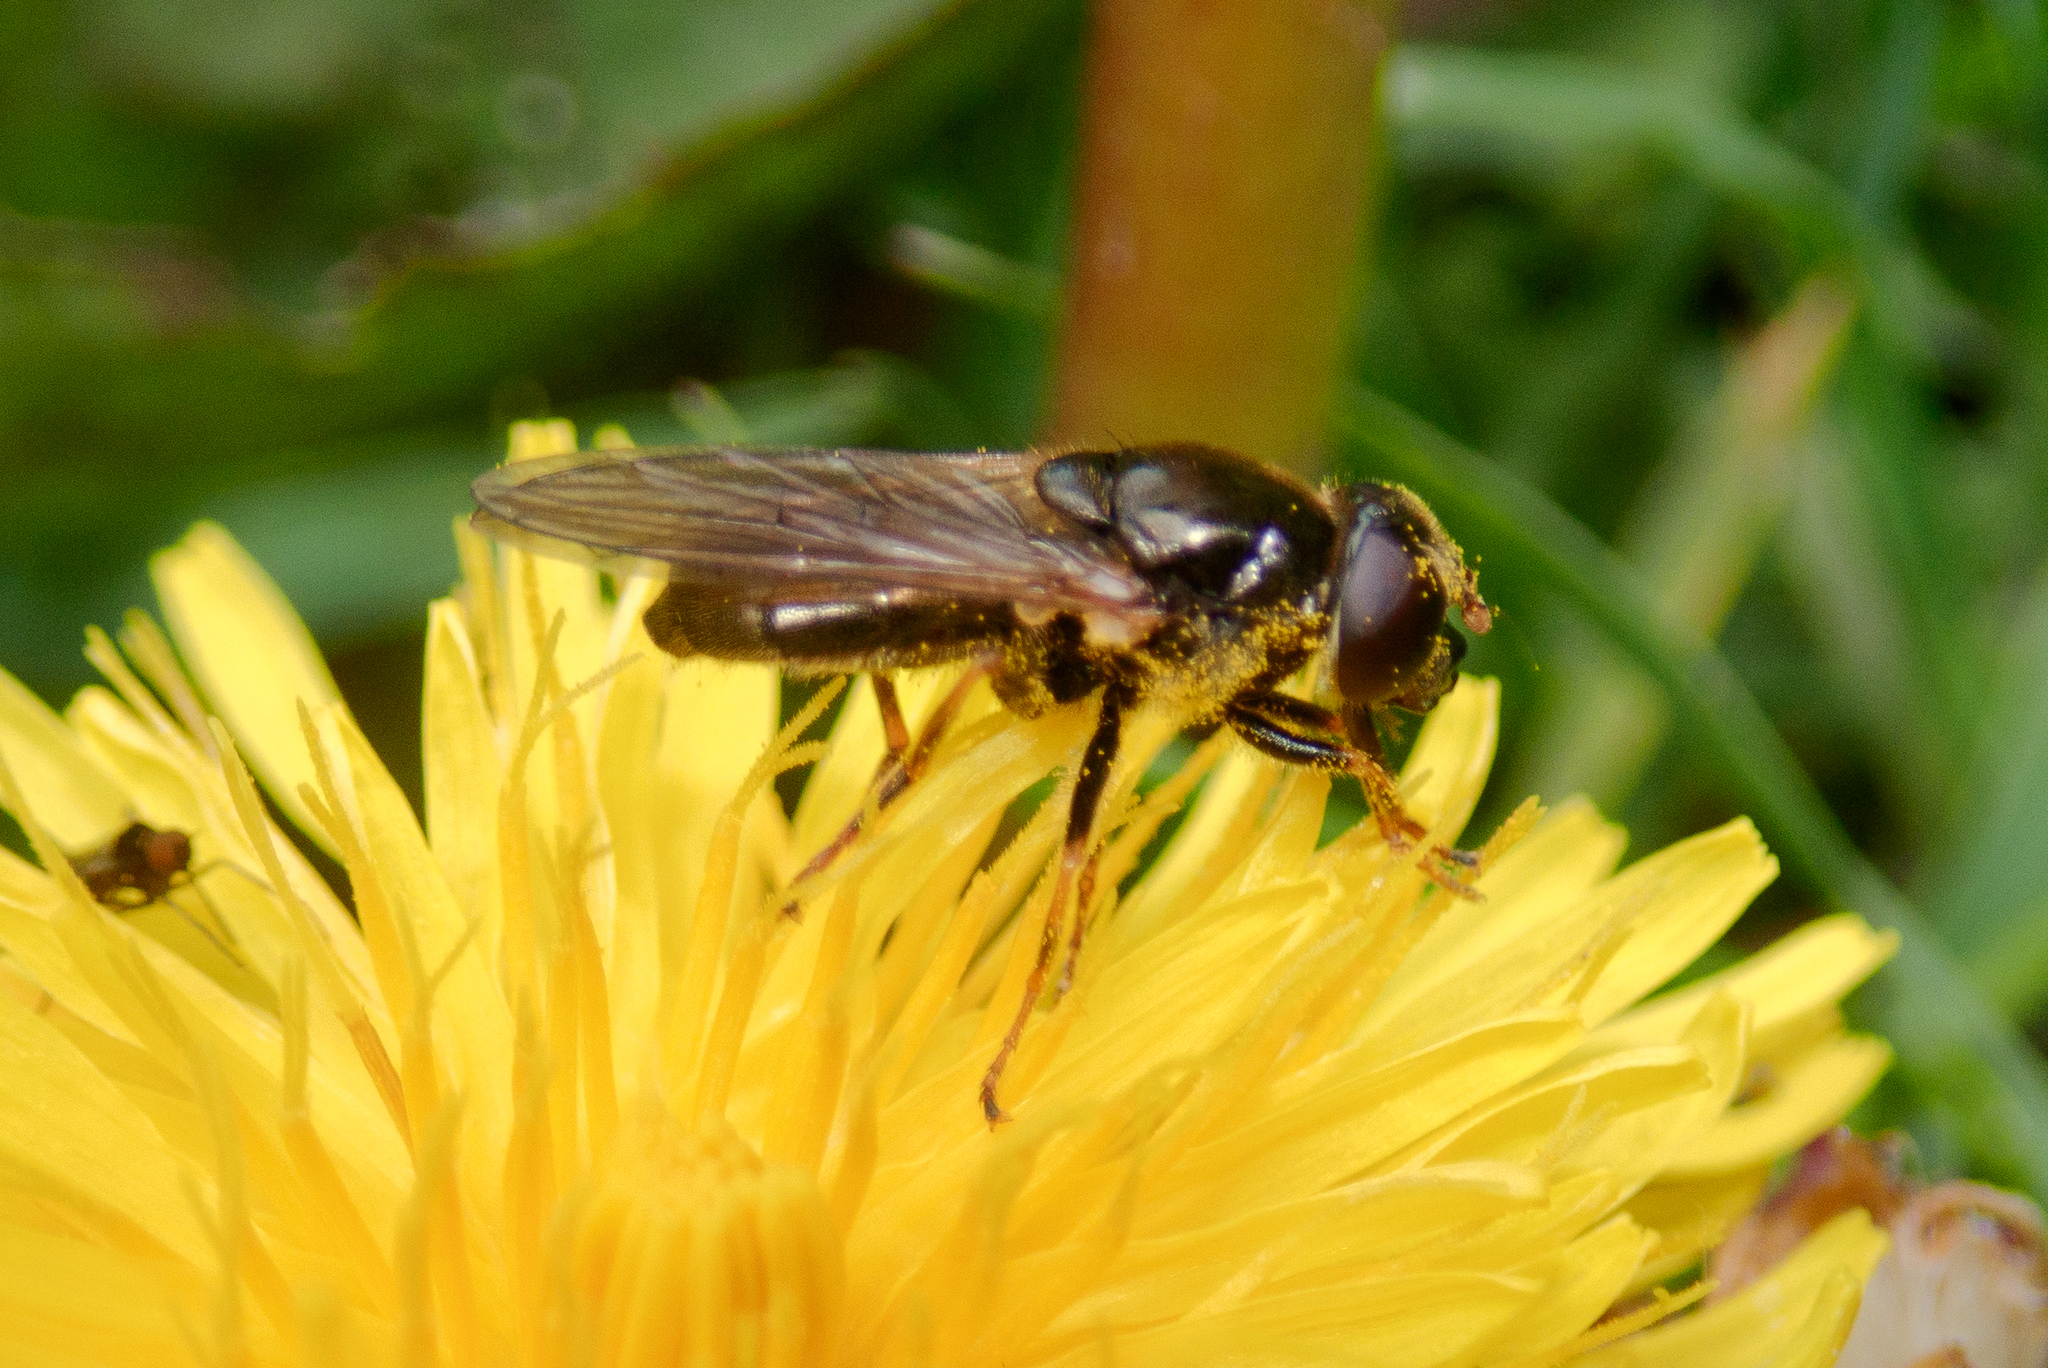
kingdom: Animalia
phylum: Arthropoda
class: Insecta
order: Diptera
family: Syrphidae
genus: Cheilosia
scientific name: Cheilosia bergenstammi
